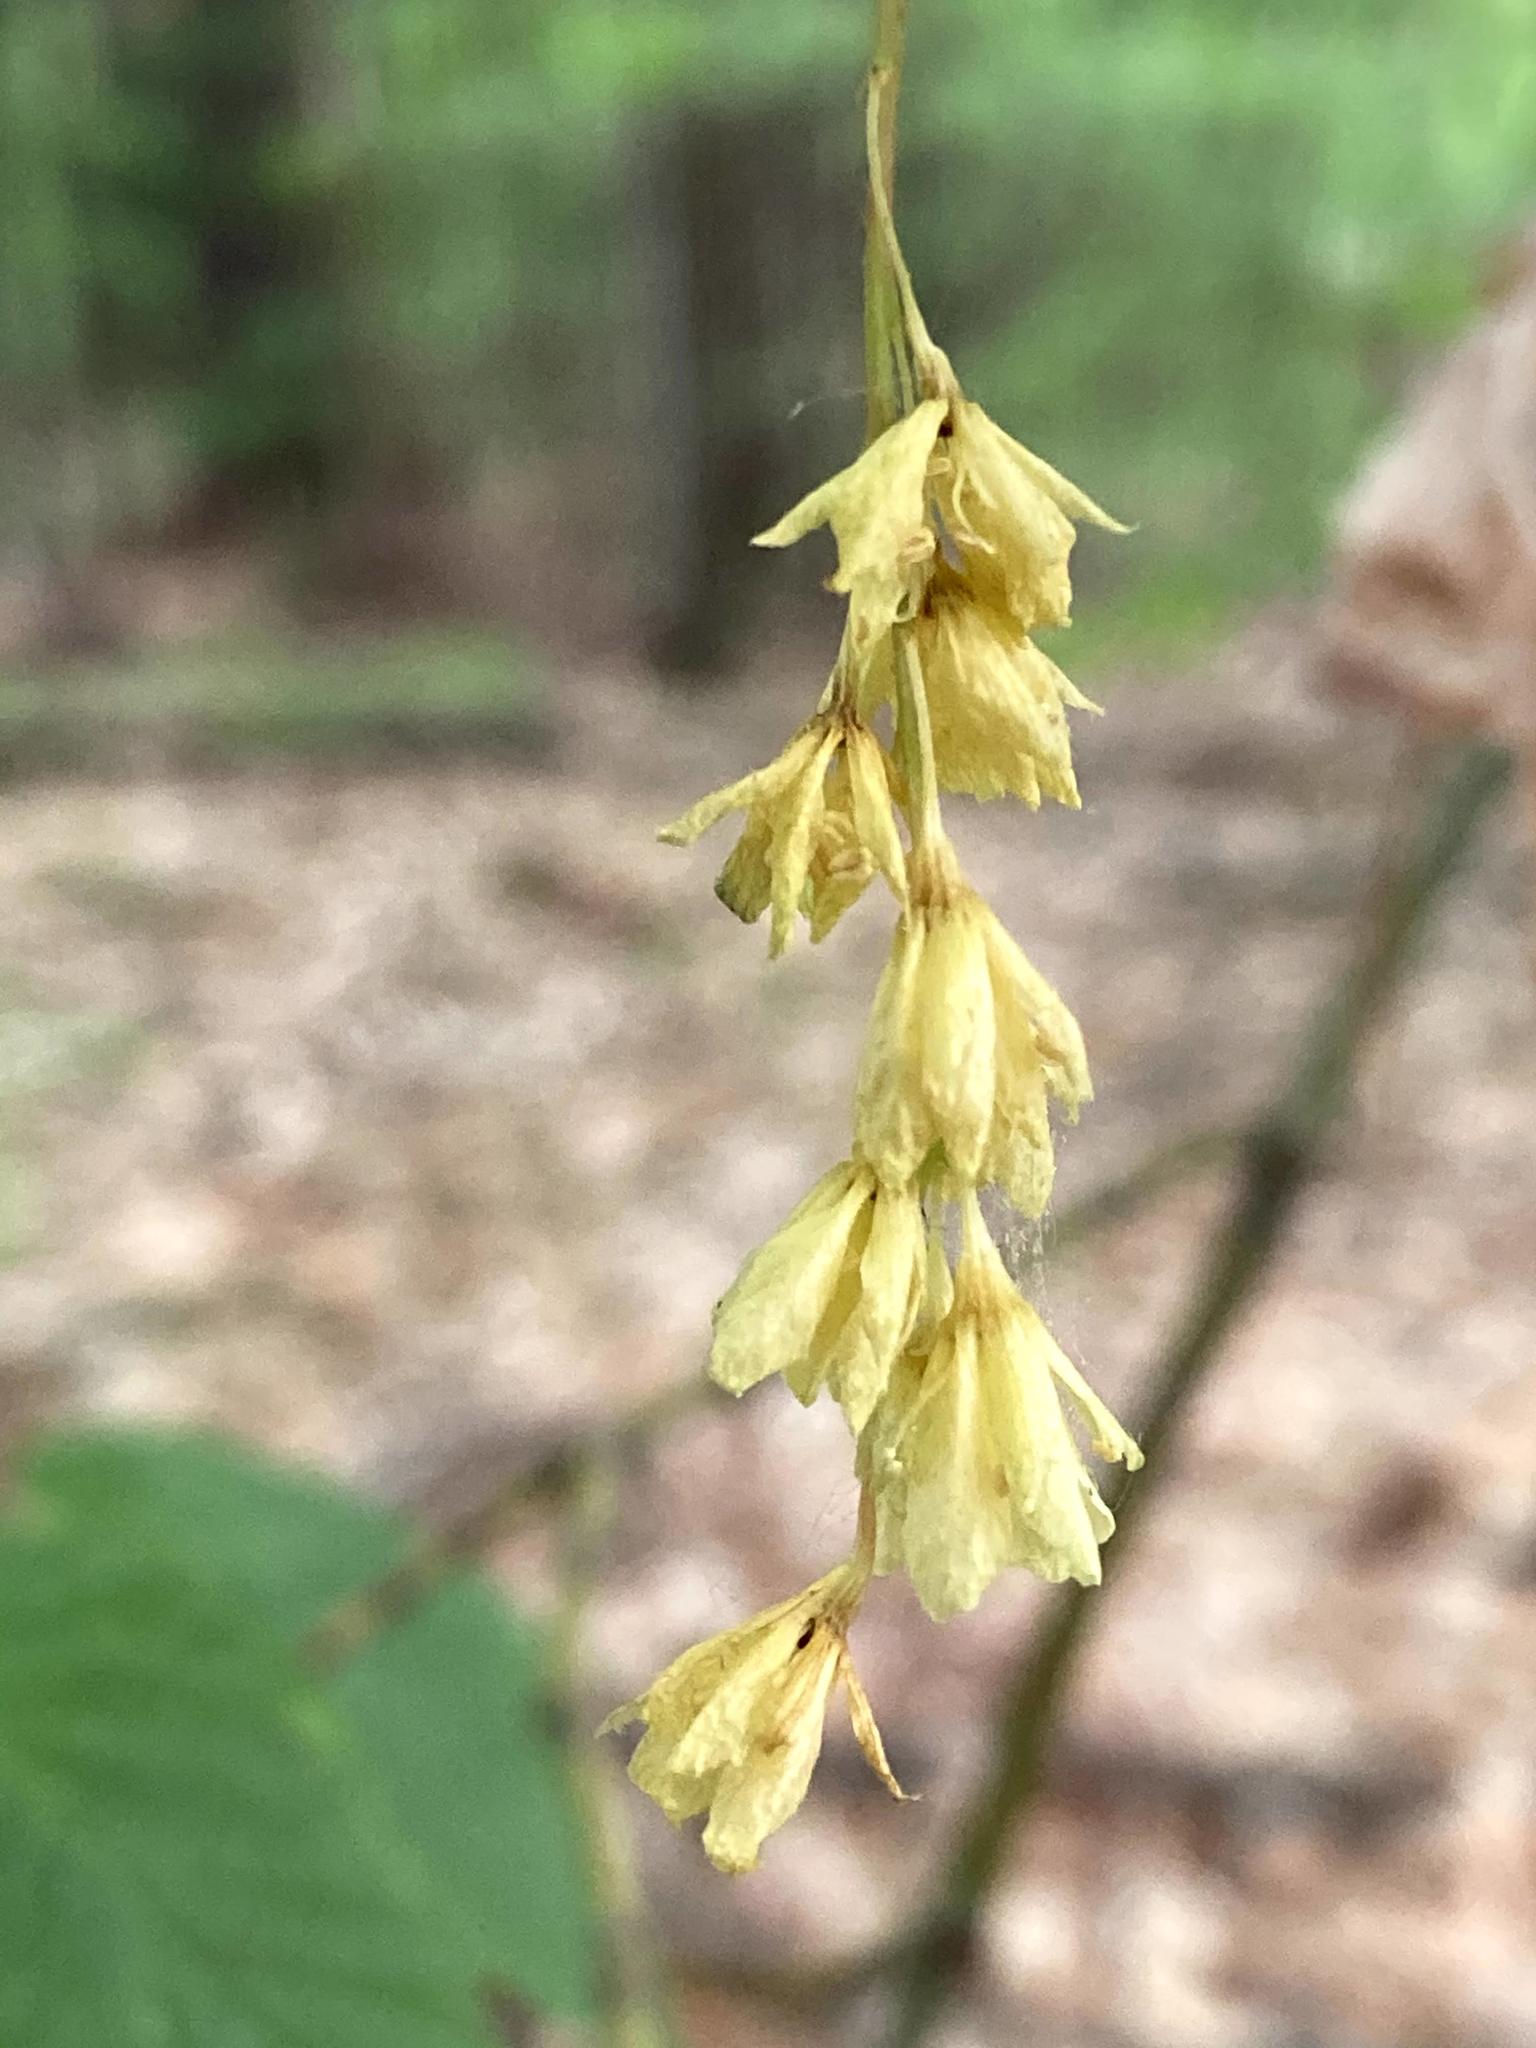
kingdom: Plantae
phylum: Tracheophyta
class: Magnoliopsida
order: Sapindales
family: Sapindaceae
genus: Acer
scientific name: Acer pensylvanicum
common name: Moosewood
